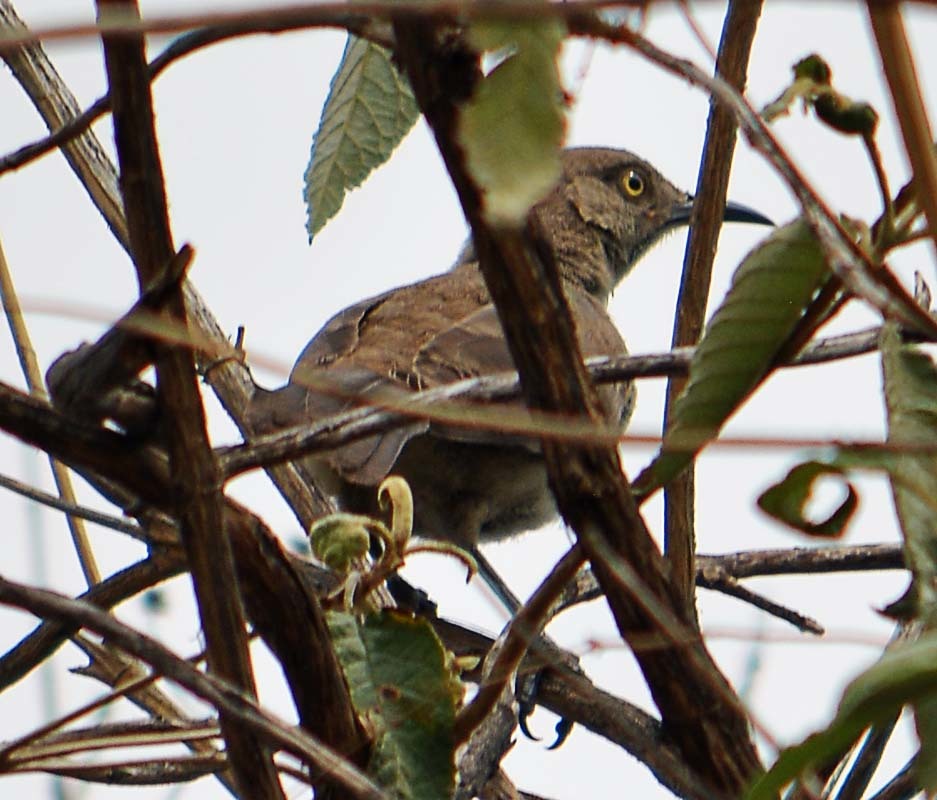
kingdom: Animalia
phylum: Chordata
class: Aves
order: Passeriformes
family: Mimidae
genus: Toxostoma
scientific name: Toxostoma curvirostre
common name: Curve-billed thrasher
